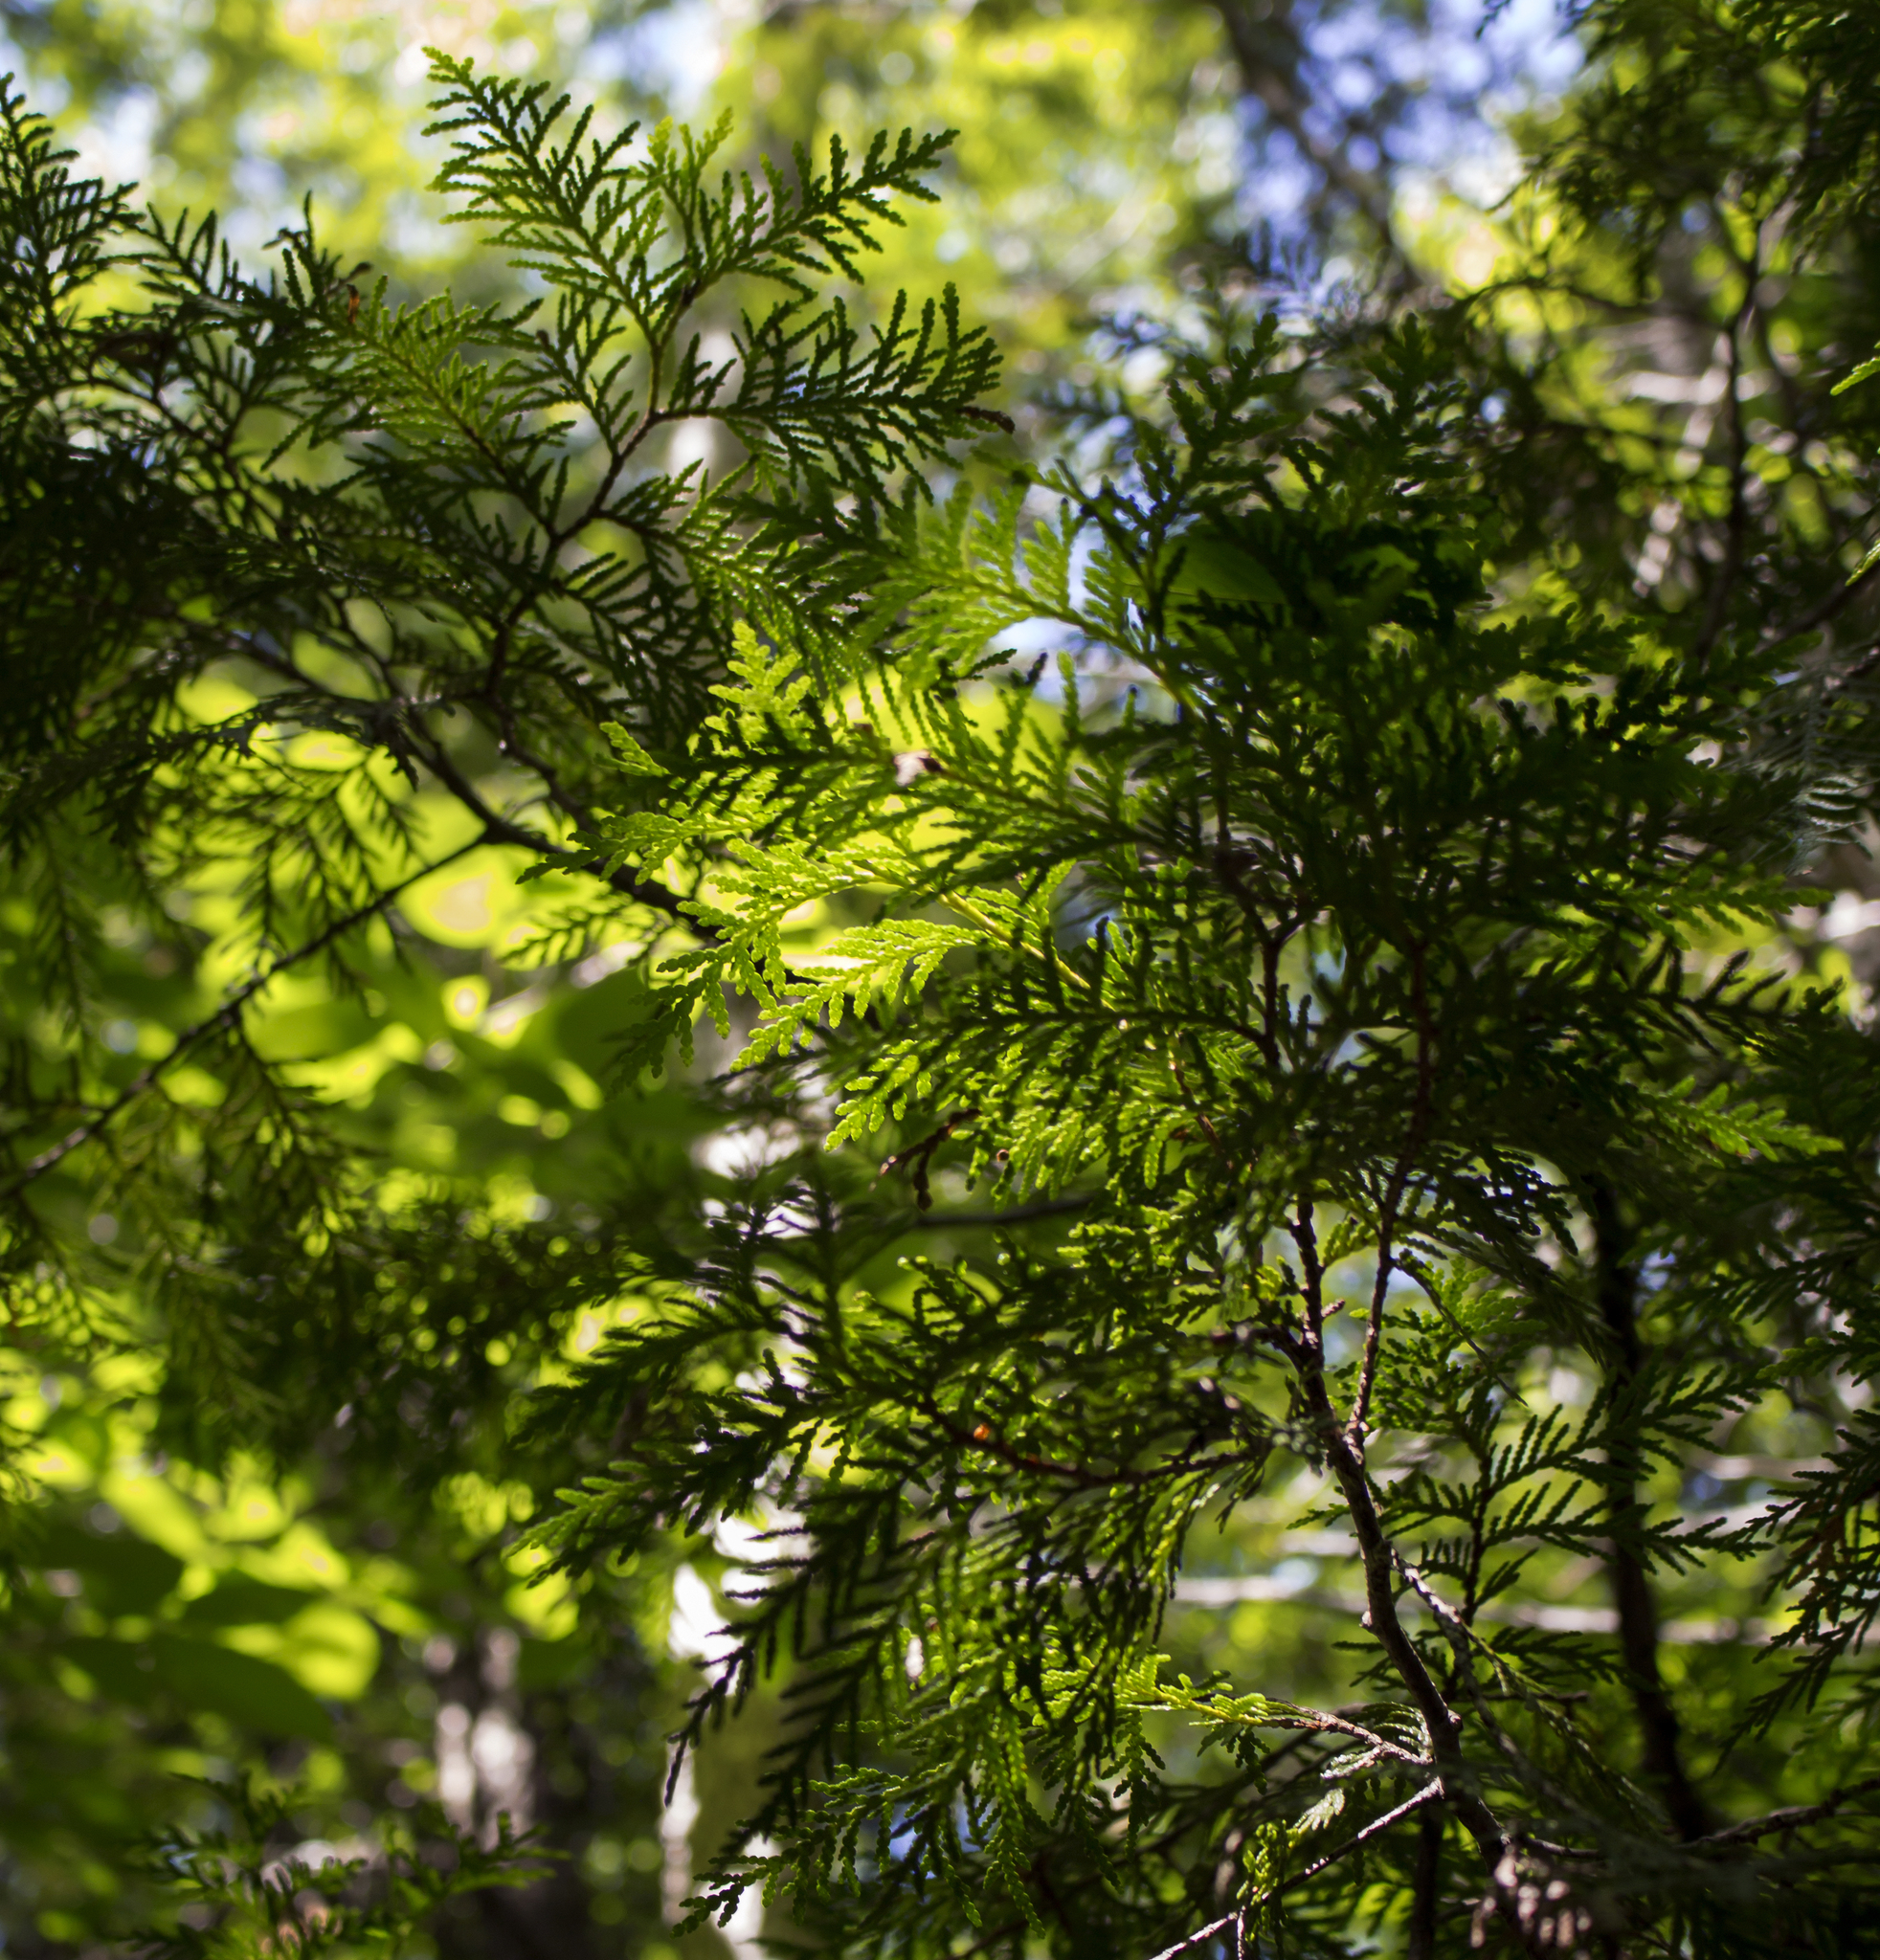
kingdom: Plantae
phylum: Tracheophyta
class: Pinopsida
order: Pinales
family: Cupressaceae
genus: Thuja
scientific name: Thuja occidentalis
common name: Northern white-cedar
